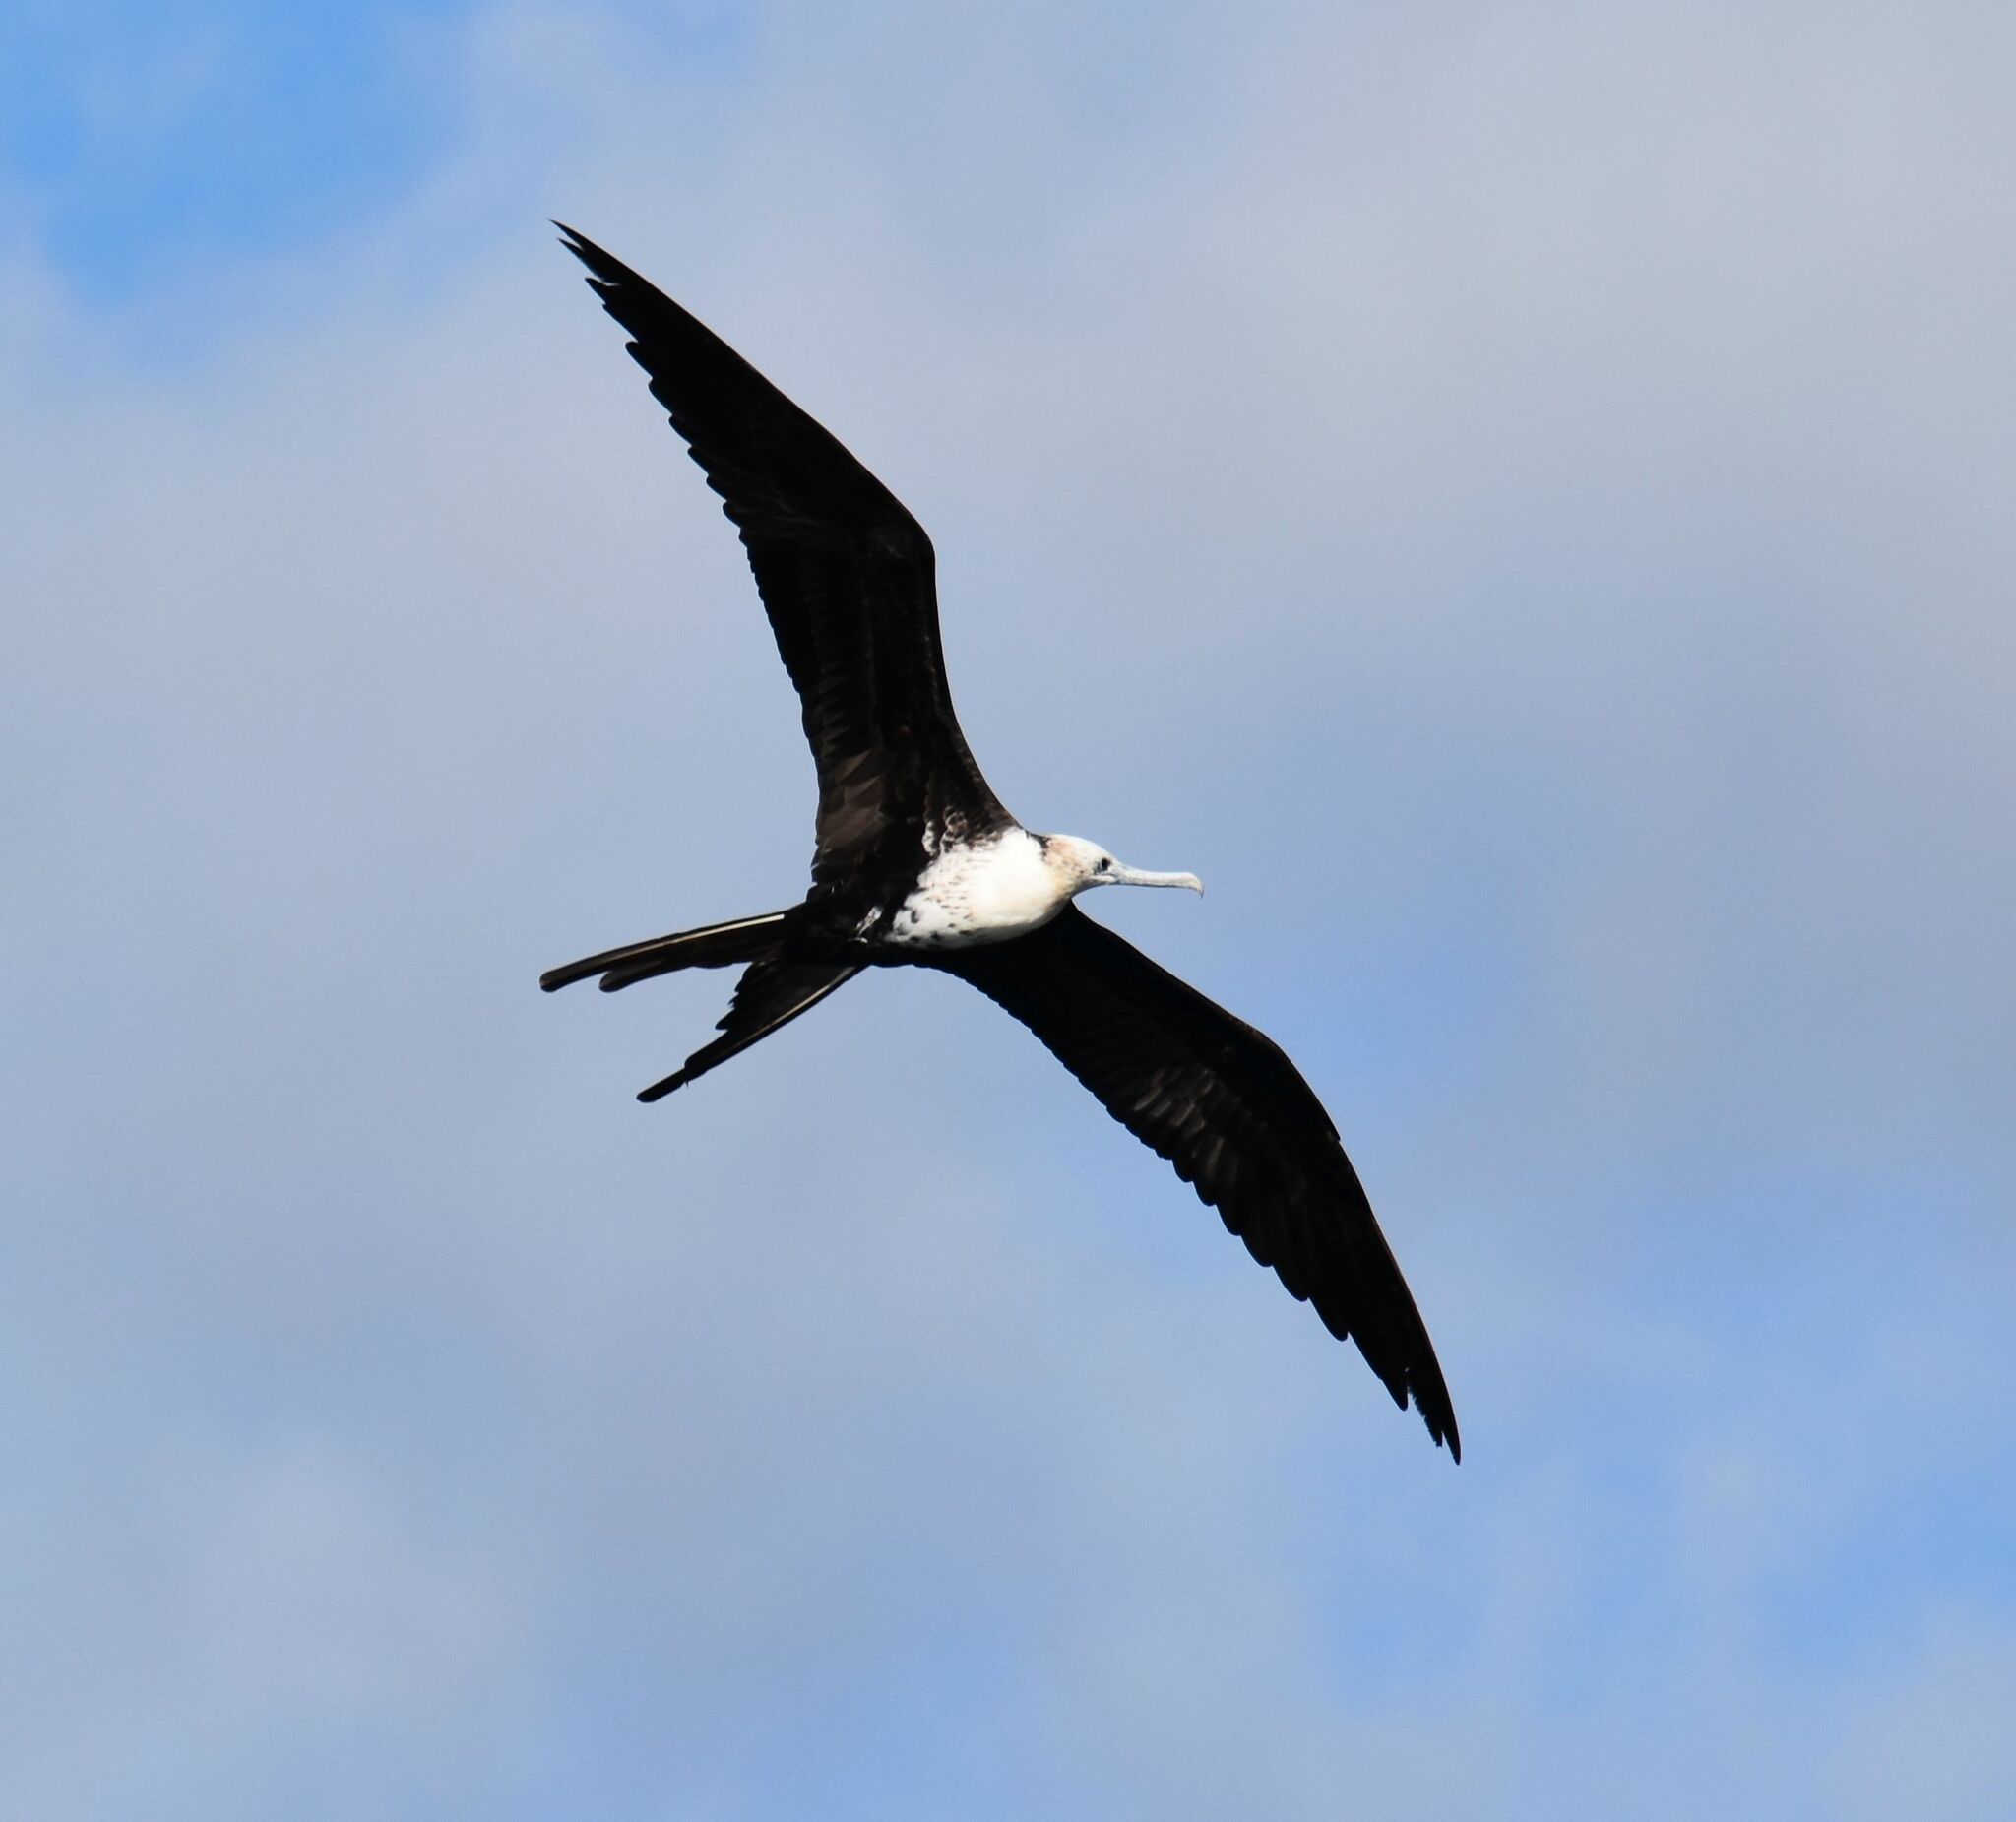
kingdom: Animalia
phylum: Chordata
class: Aves
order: Suliformes
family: Fregatidae
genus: Fregata
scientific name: Fregata magnificens
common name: Magnificent frigatebird
